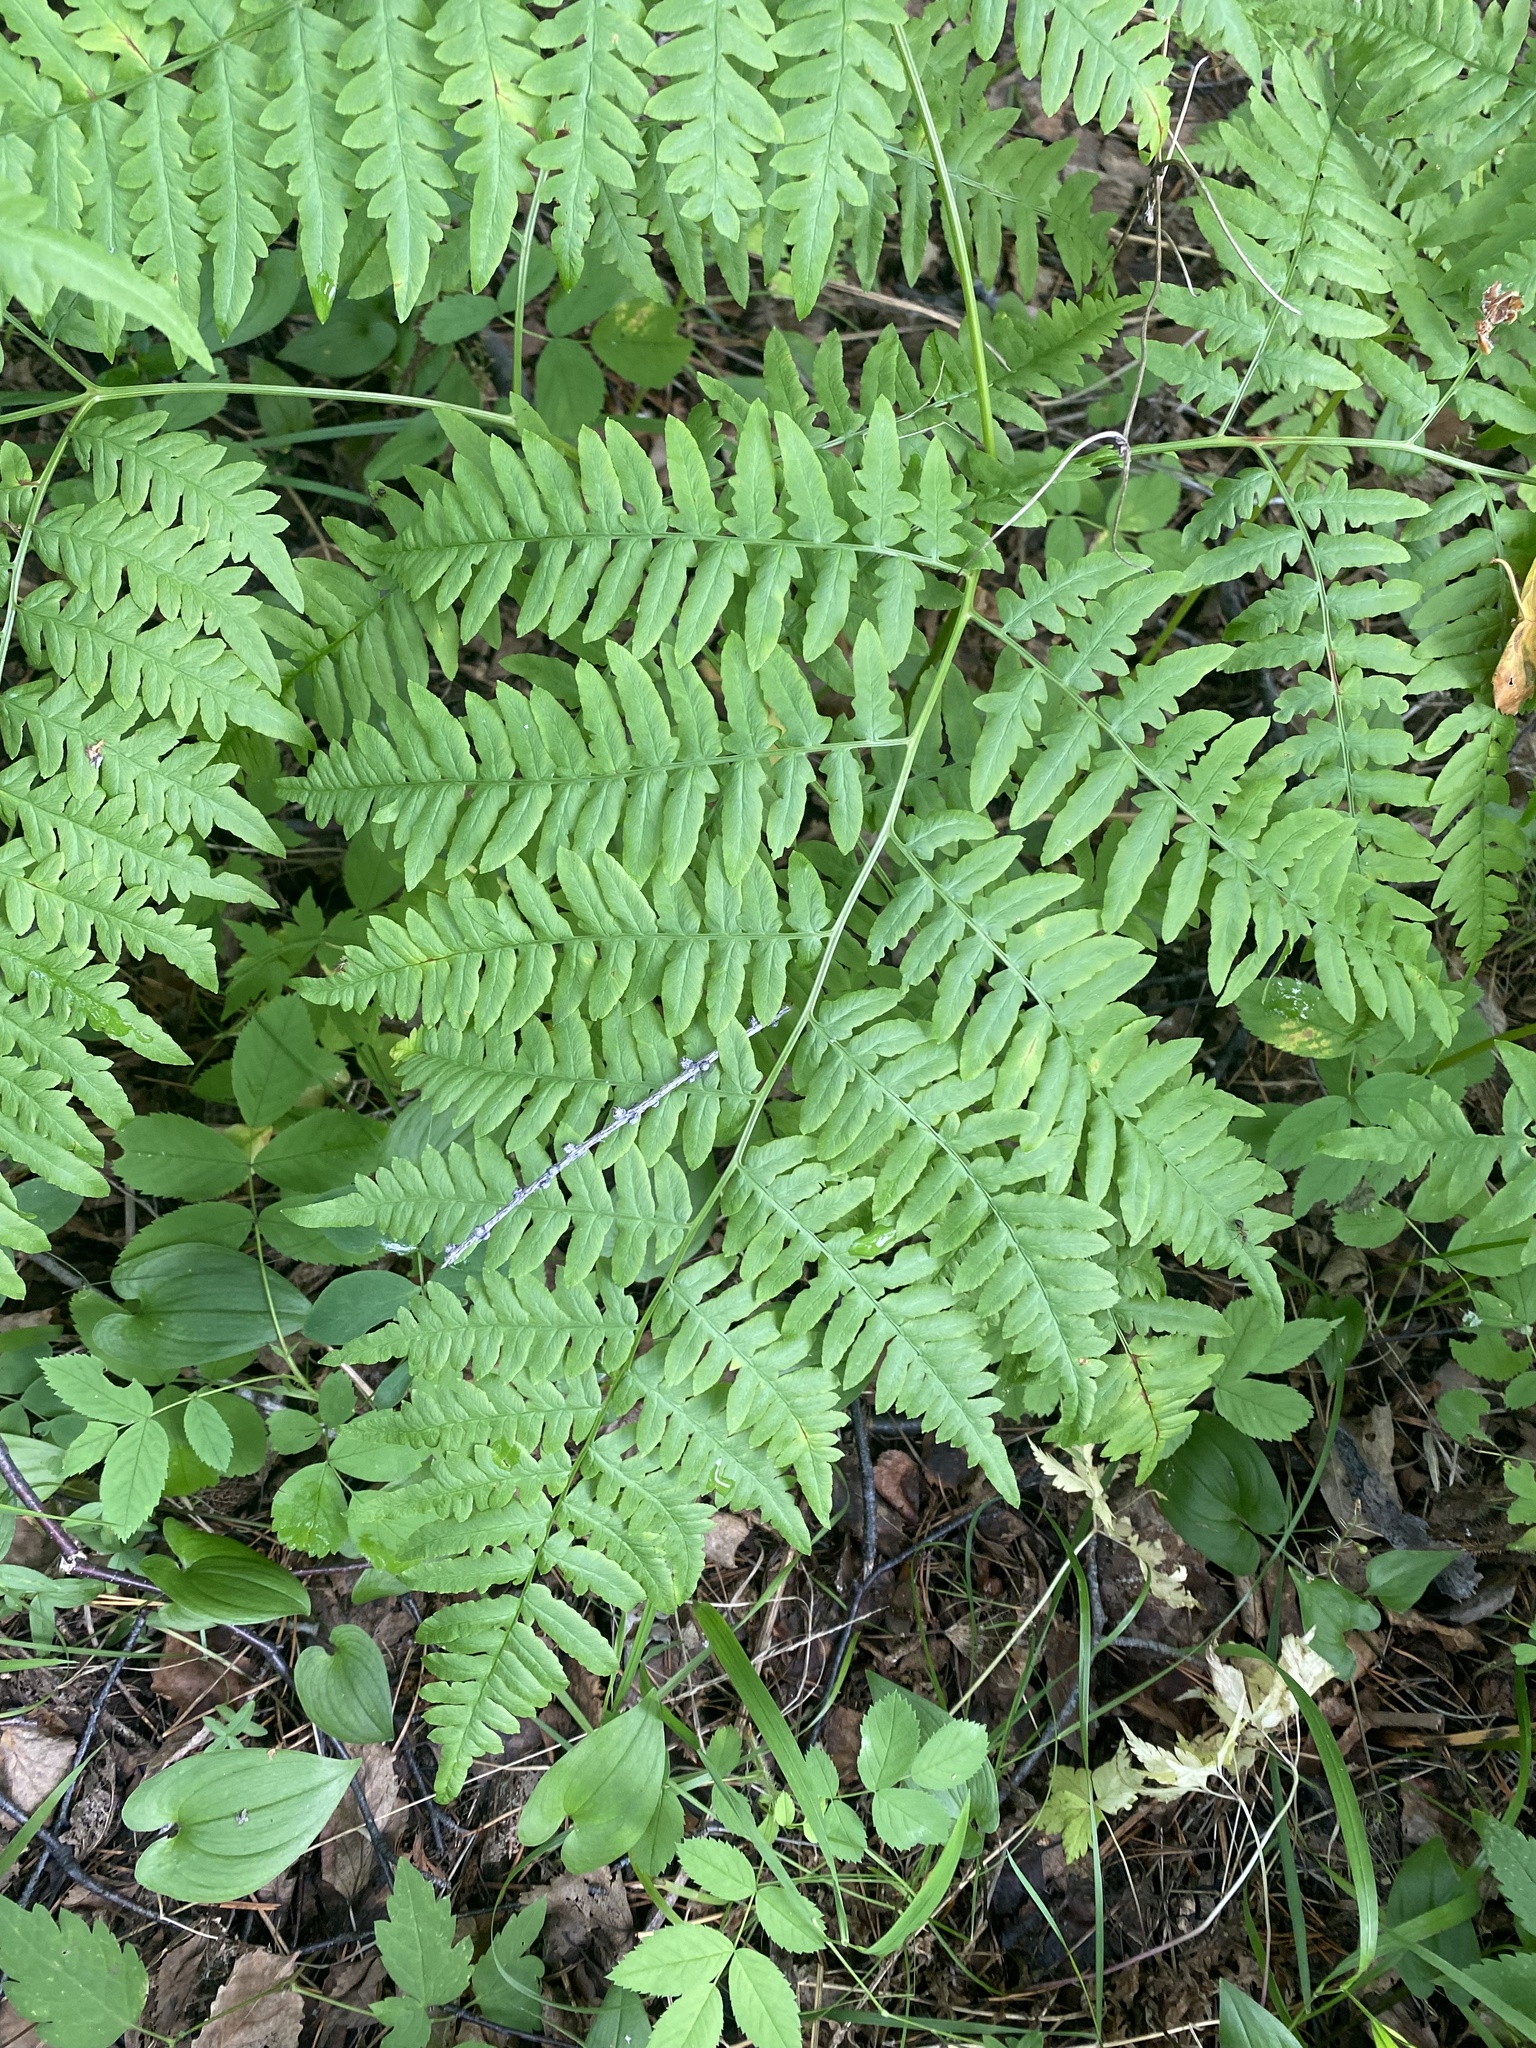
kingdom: Plantae
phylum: Tracheophyta
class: Polypodiopsida
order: Polypodiales
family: Dennstaedtiaceae
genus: Pteridium
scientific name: Pteridium aquilinum
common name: Bracken
